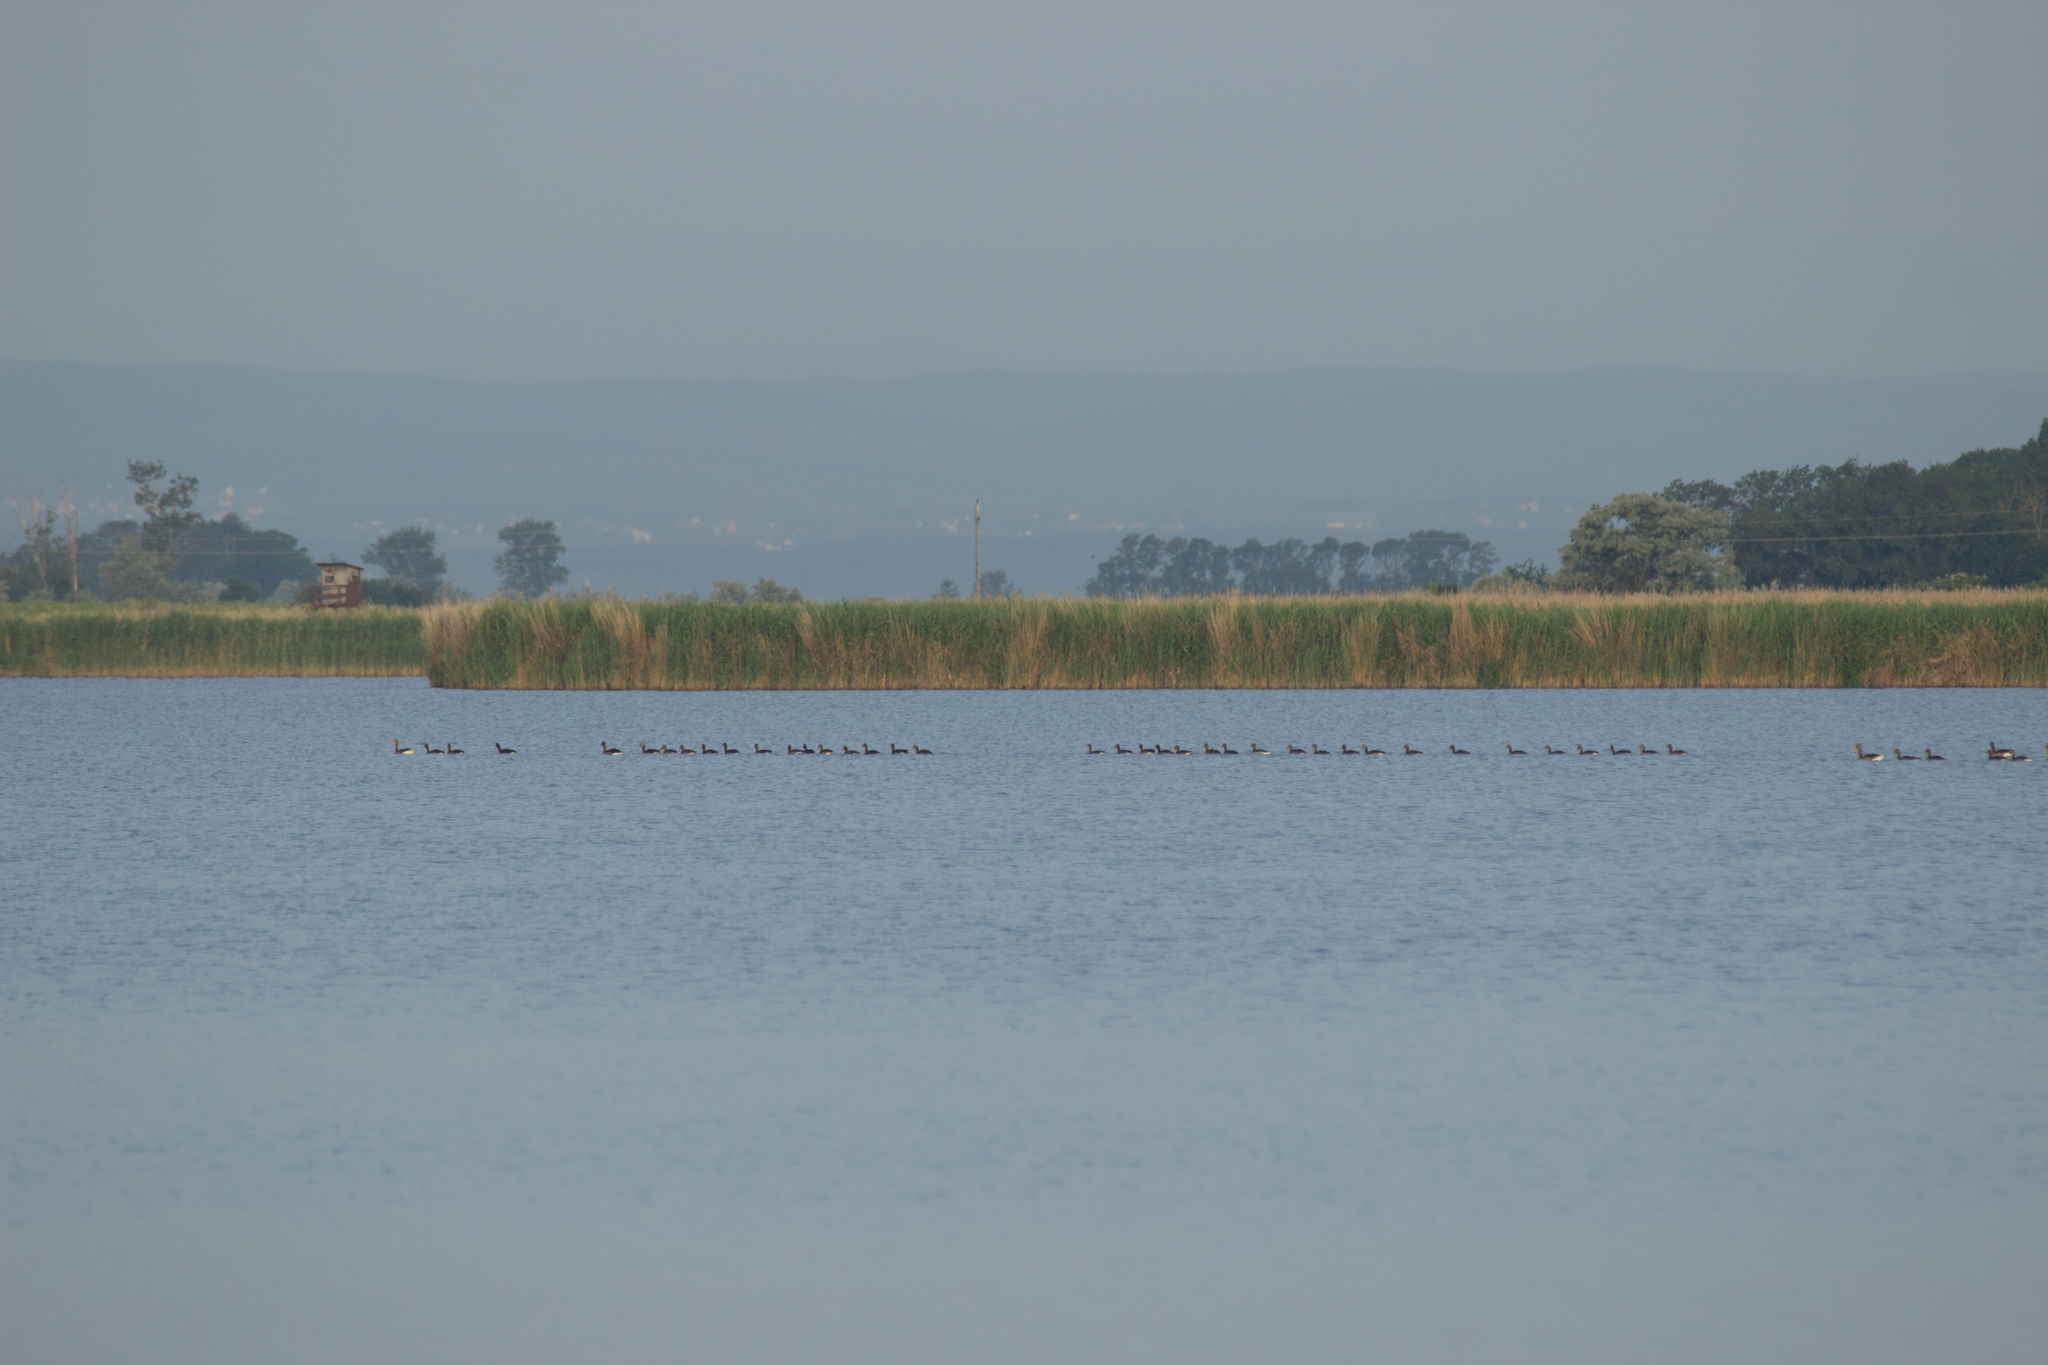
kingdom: Animalia
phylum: Chordata
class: Aves
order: Anseriformes
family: Anatidae
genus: Anser
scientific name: Anser anser
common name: Greylag goose
